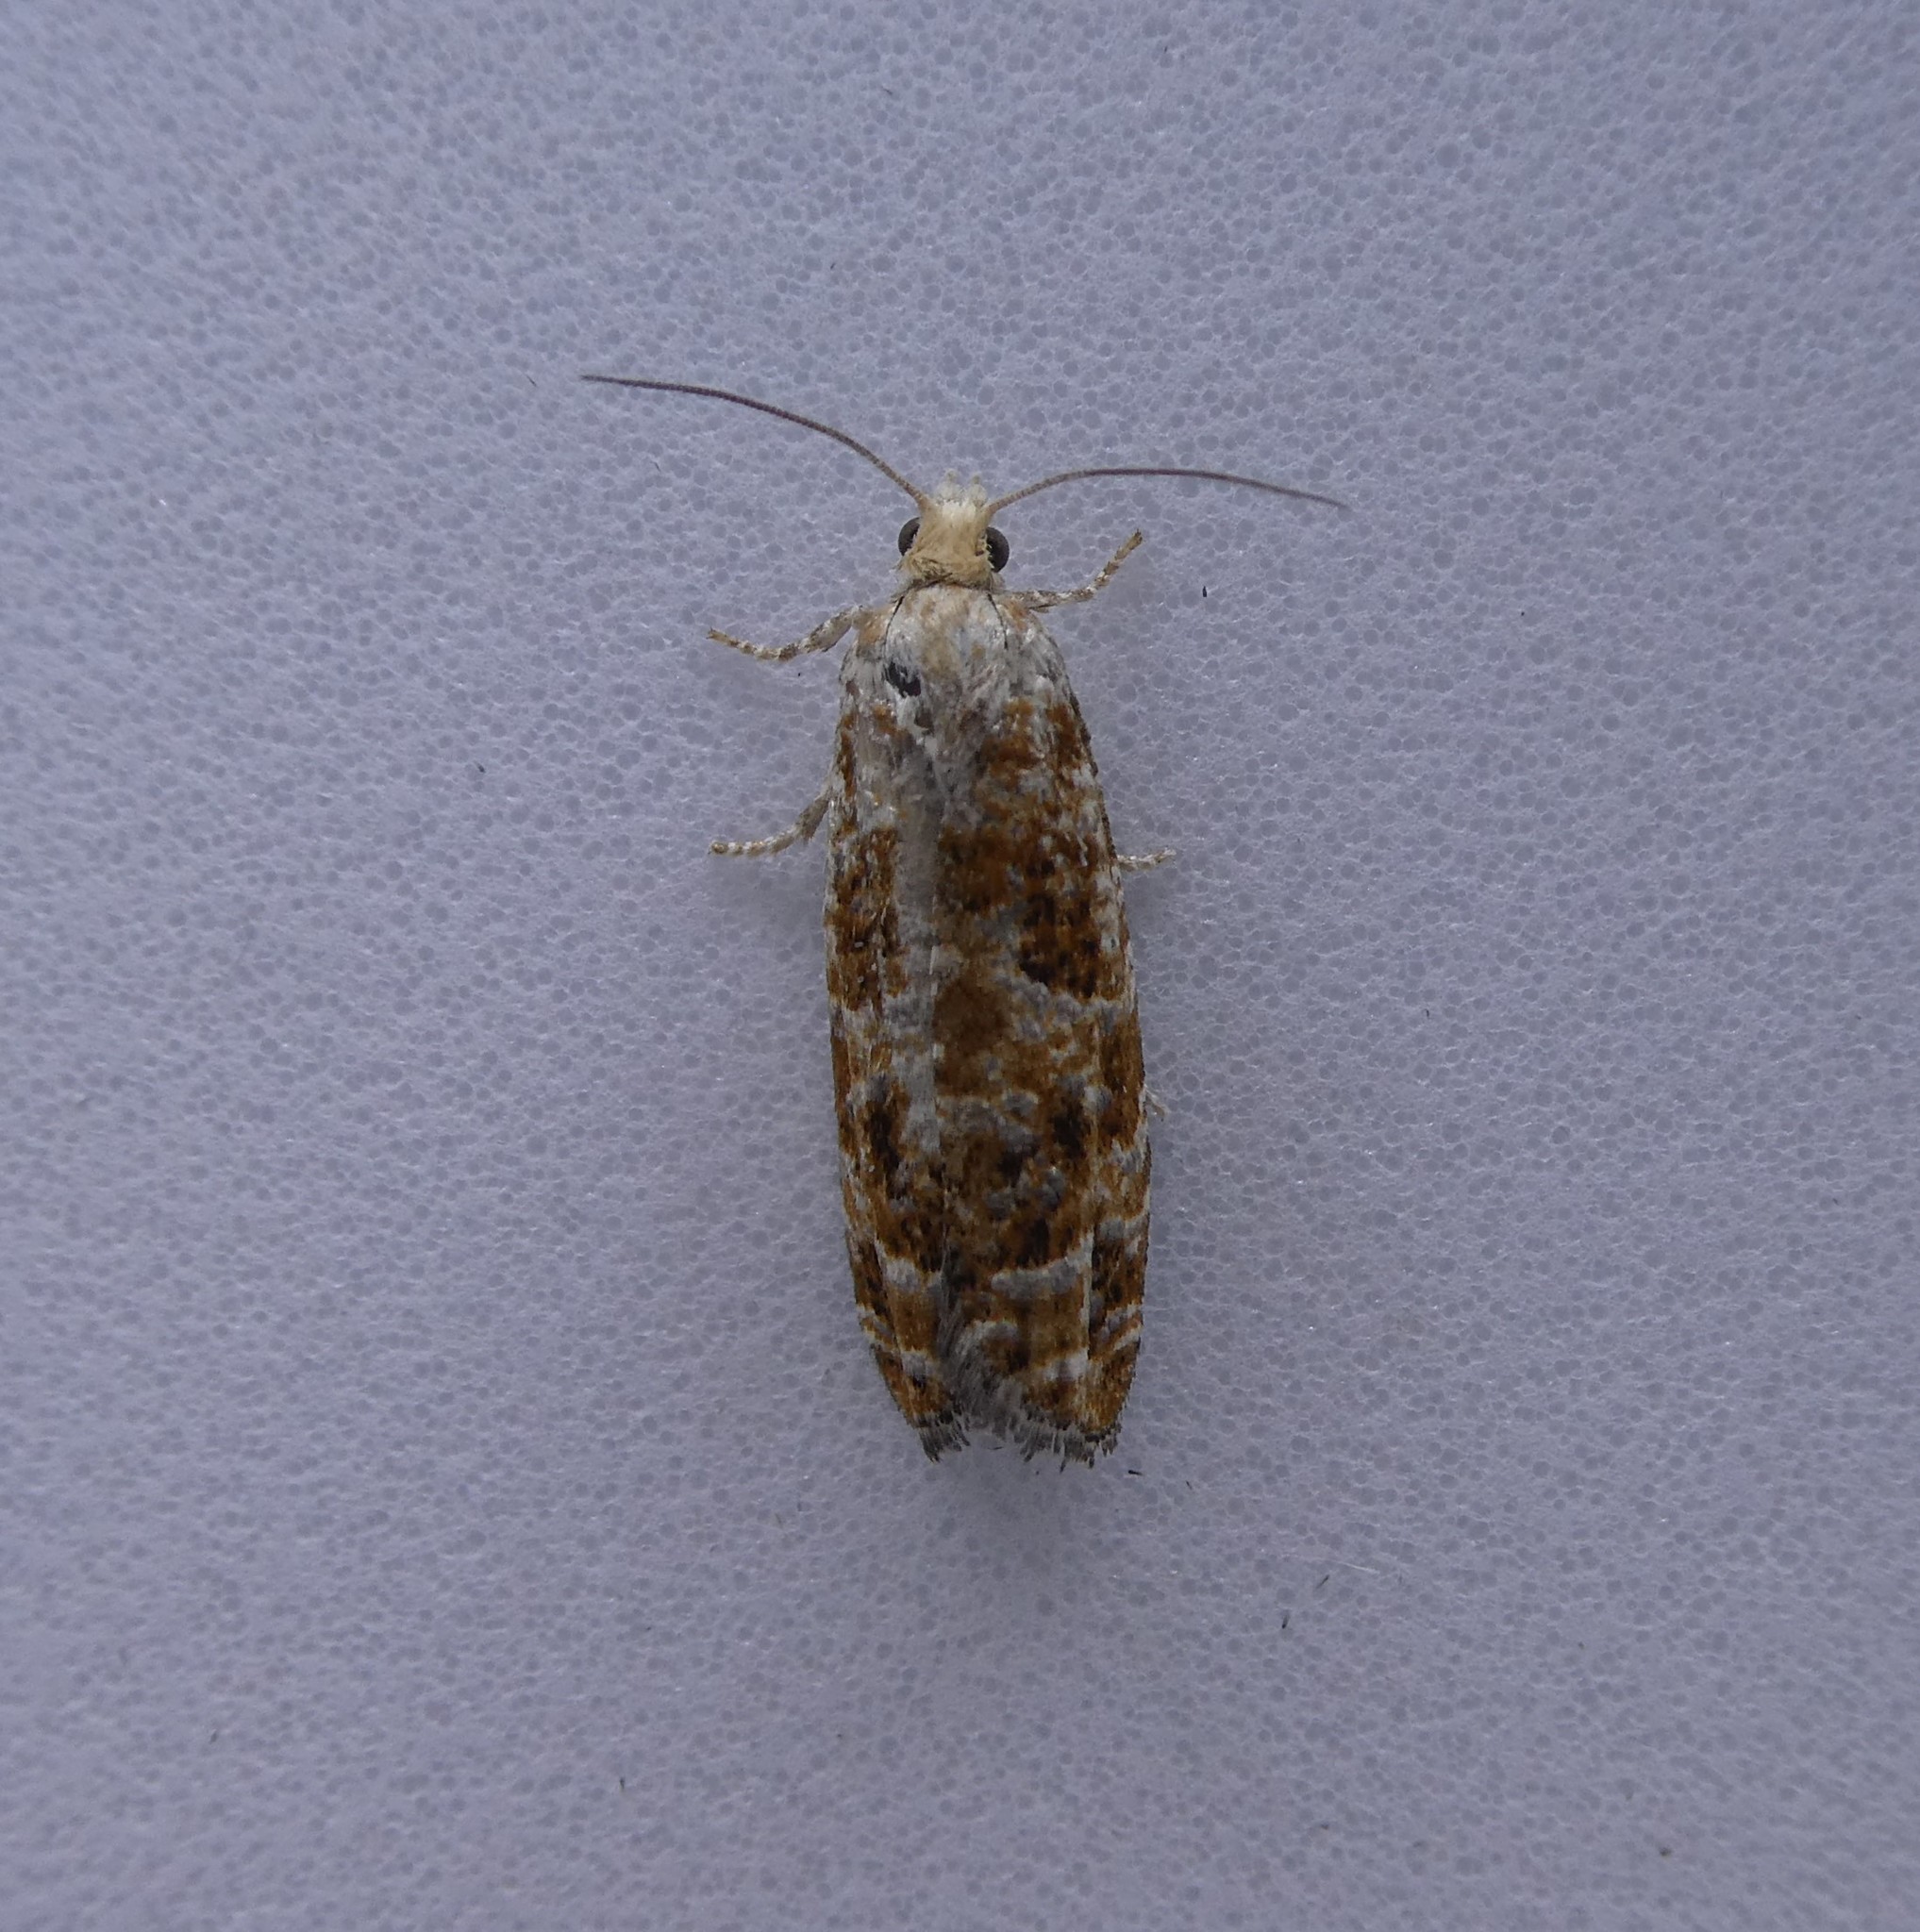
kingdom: Animalia
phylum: Arthropoda
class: Insecta
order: Lepidoptera
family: Tortricidae
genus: Retinia
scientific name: Retinia albicapitana
